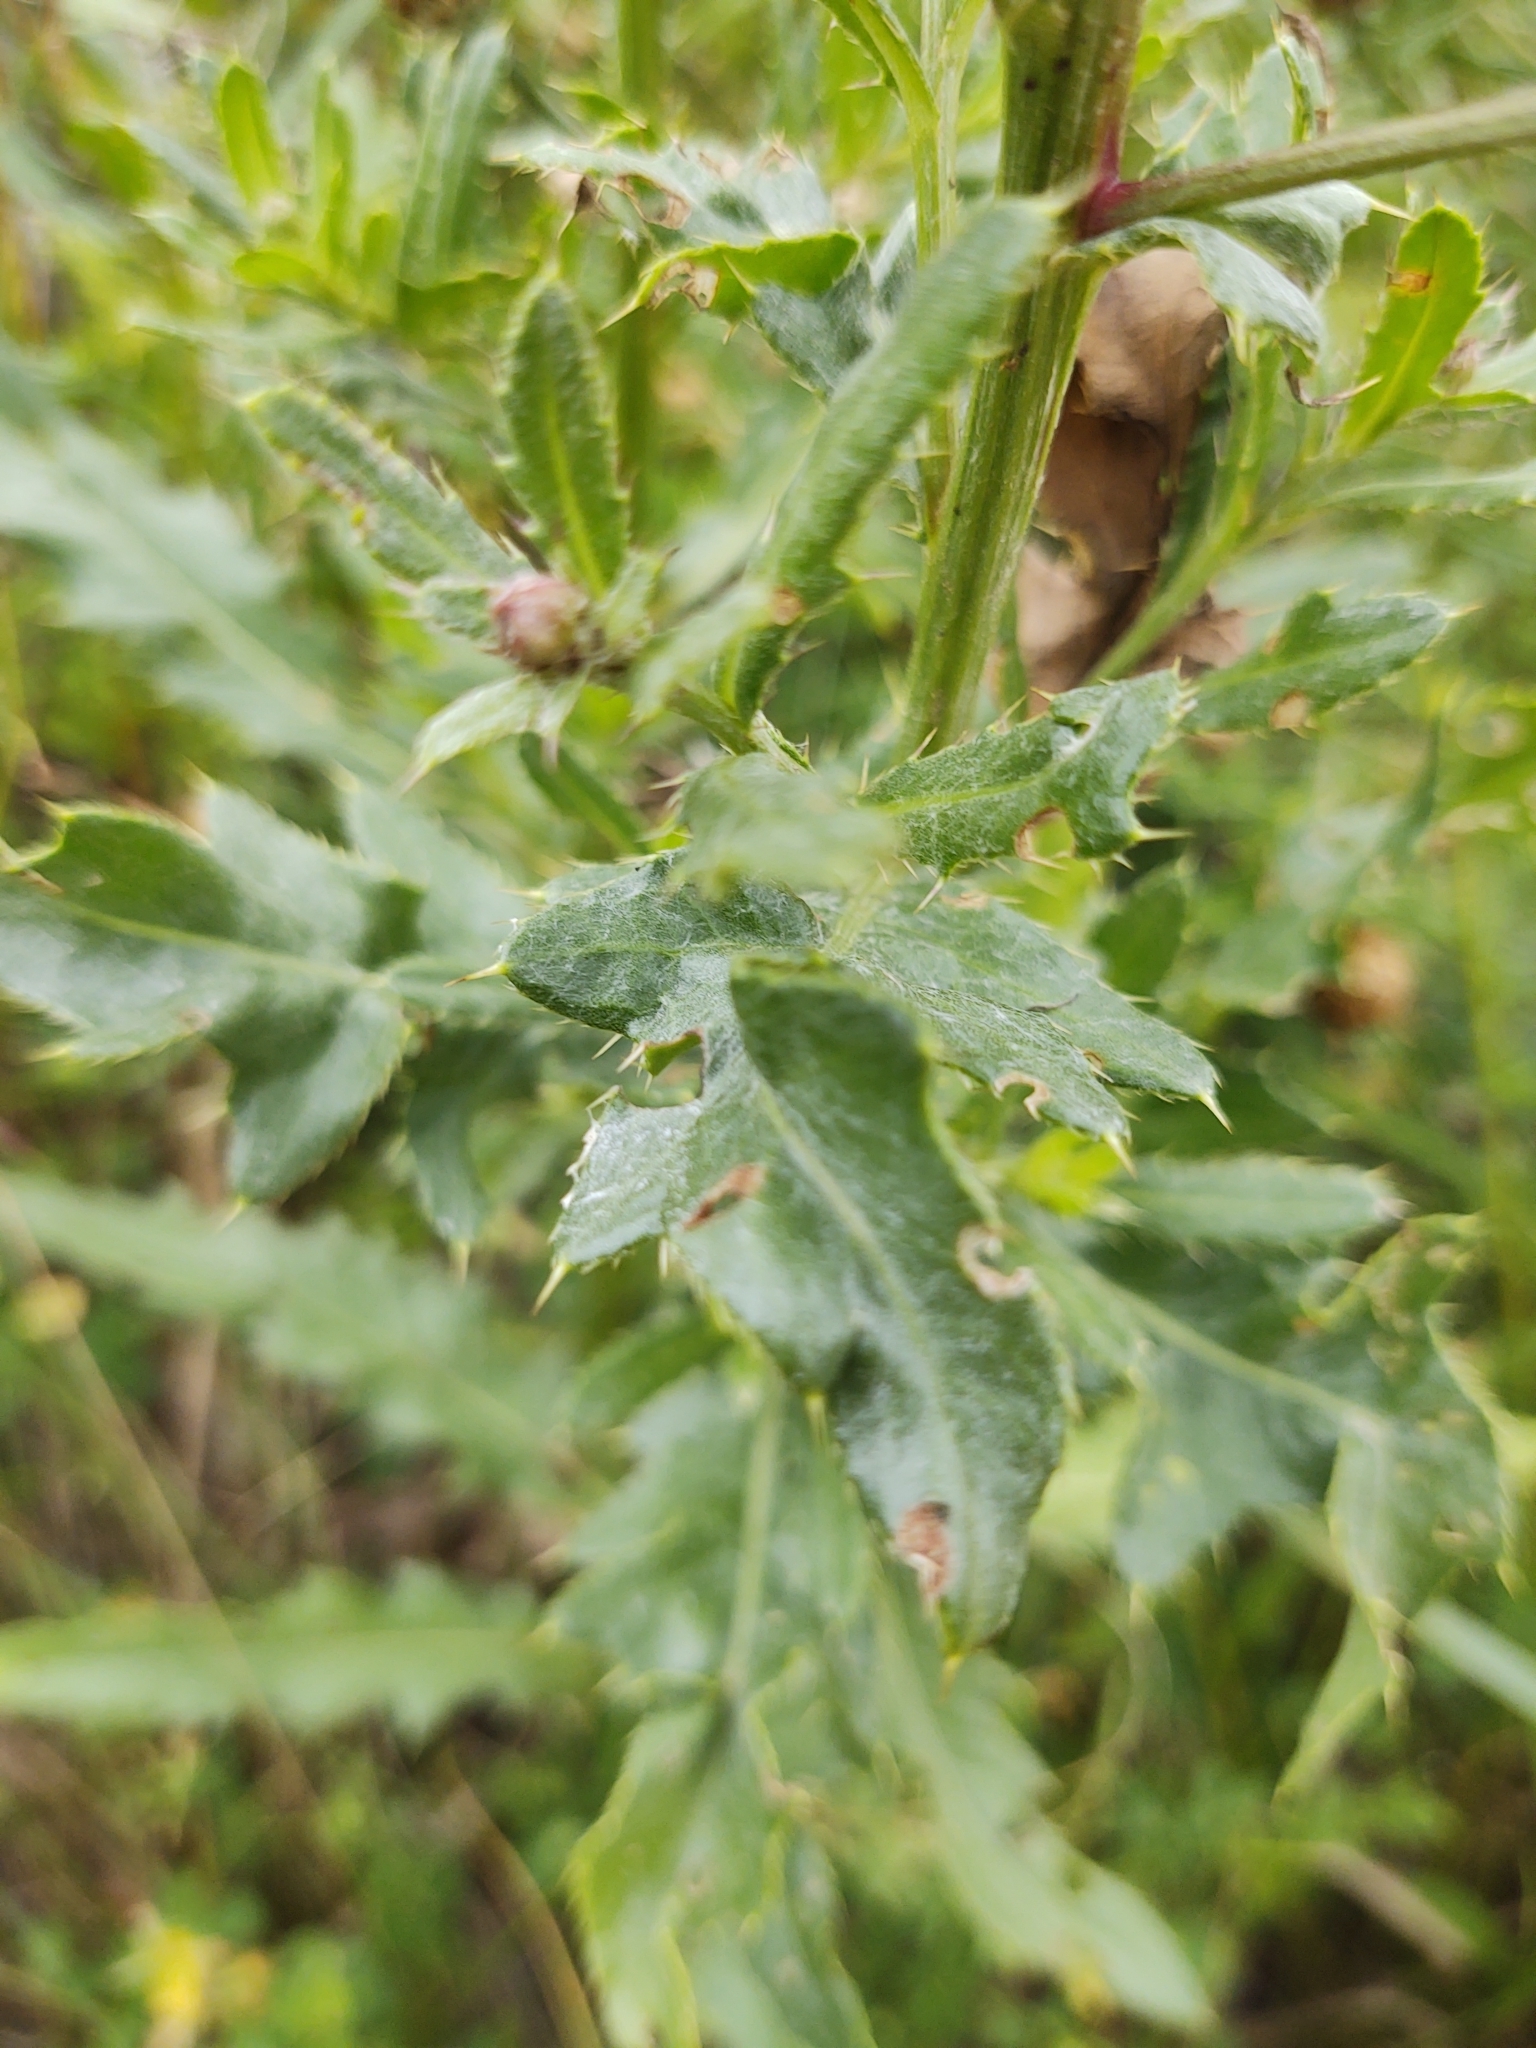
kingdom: Plantae
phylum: Tracheophyta
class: Magnoliopsida
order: Asterales
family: Asteraceae
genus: Cirsium
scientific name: Cirsium arvense
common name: Creeping thistle
